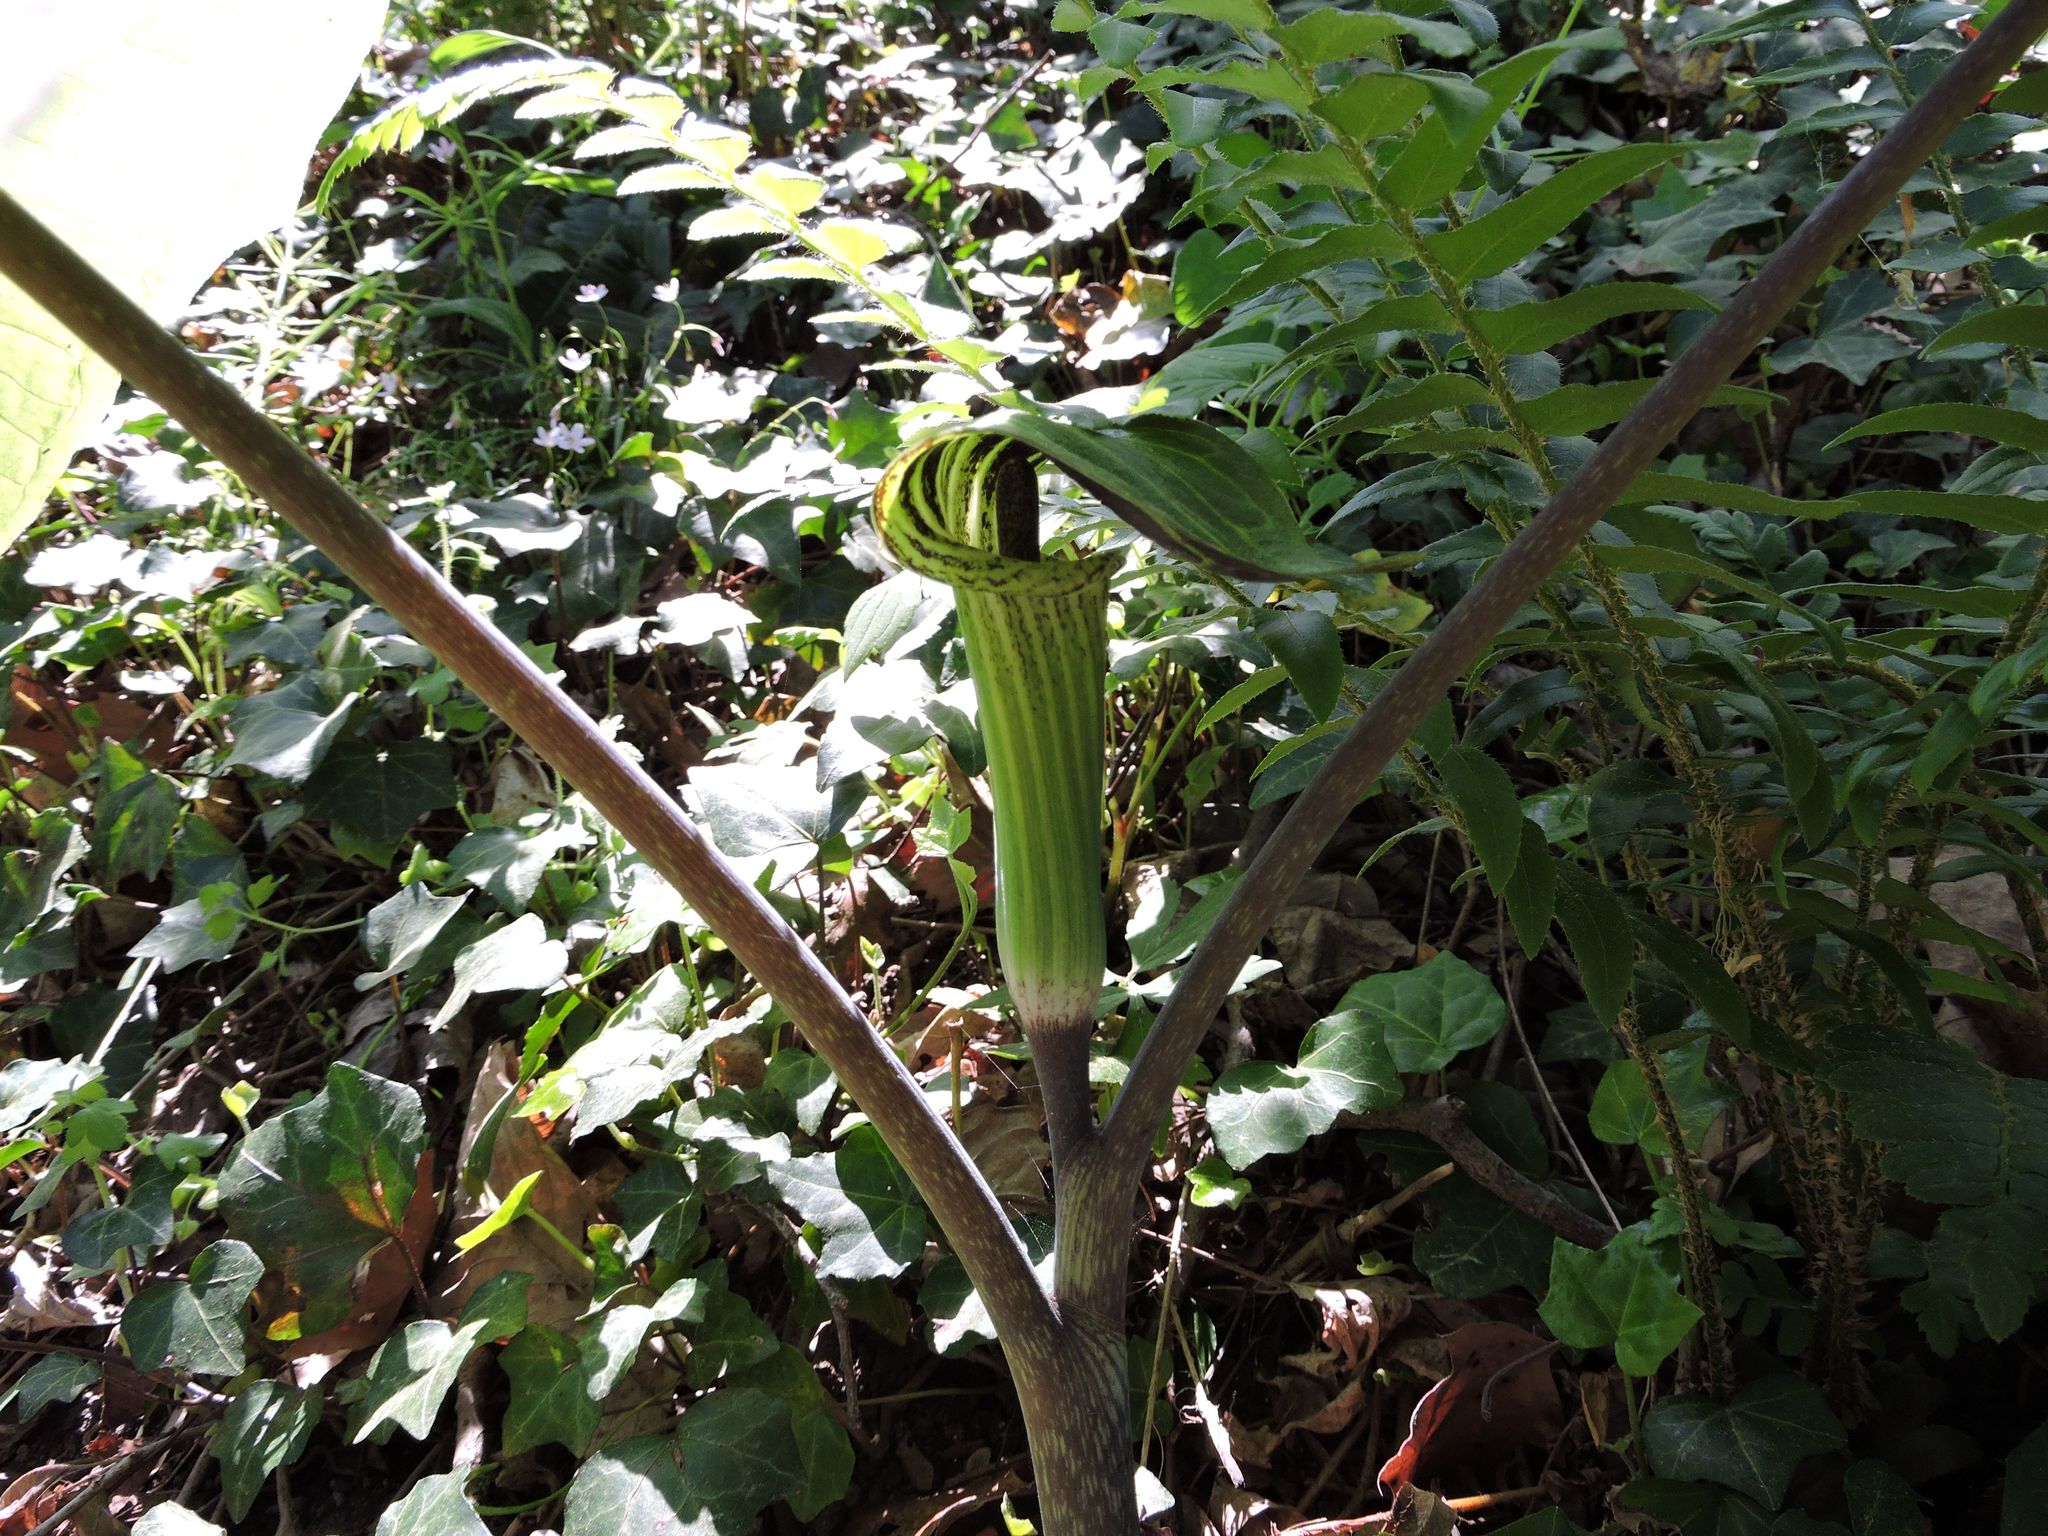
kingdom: Plantae
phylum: Tracheophyta
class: Liliopsida
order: Alismatales
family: Araceae
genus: Arisaema
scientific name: Arisaema triphyllum
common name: Jack-in-the-pulpit
